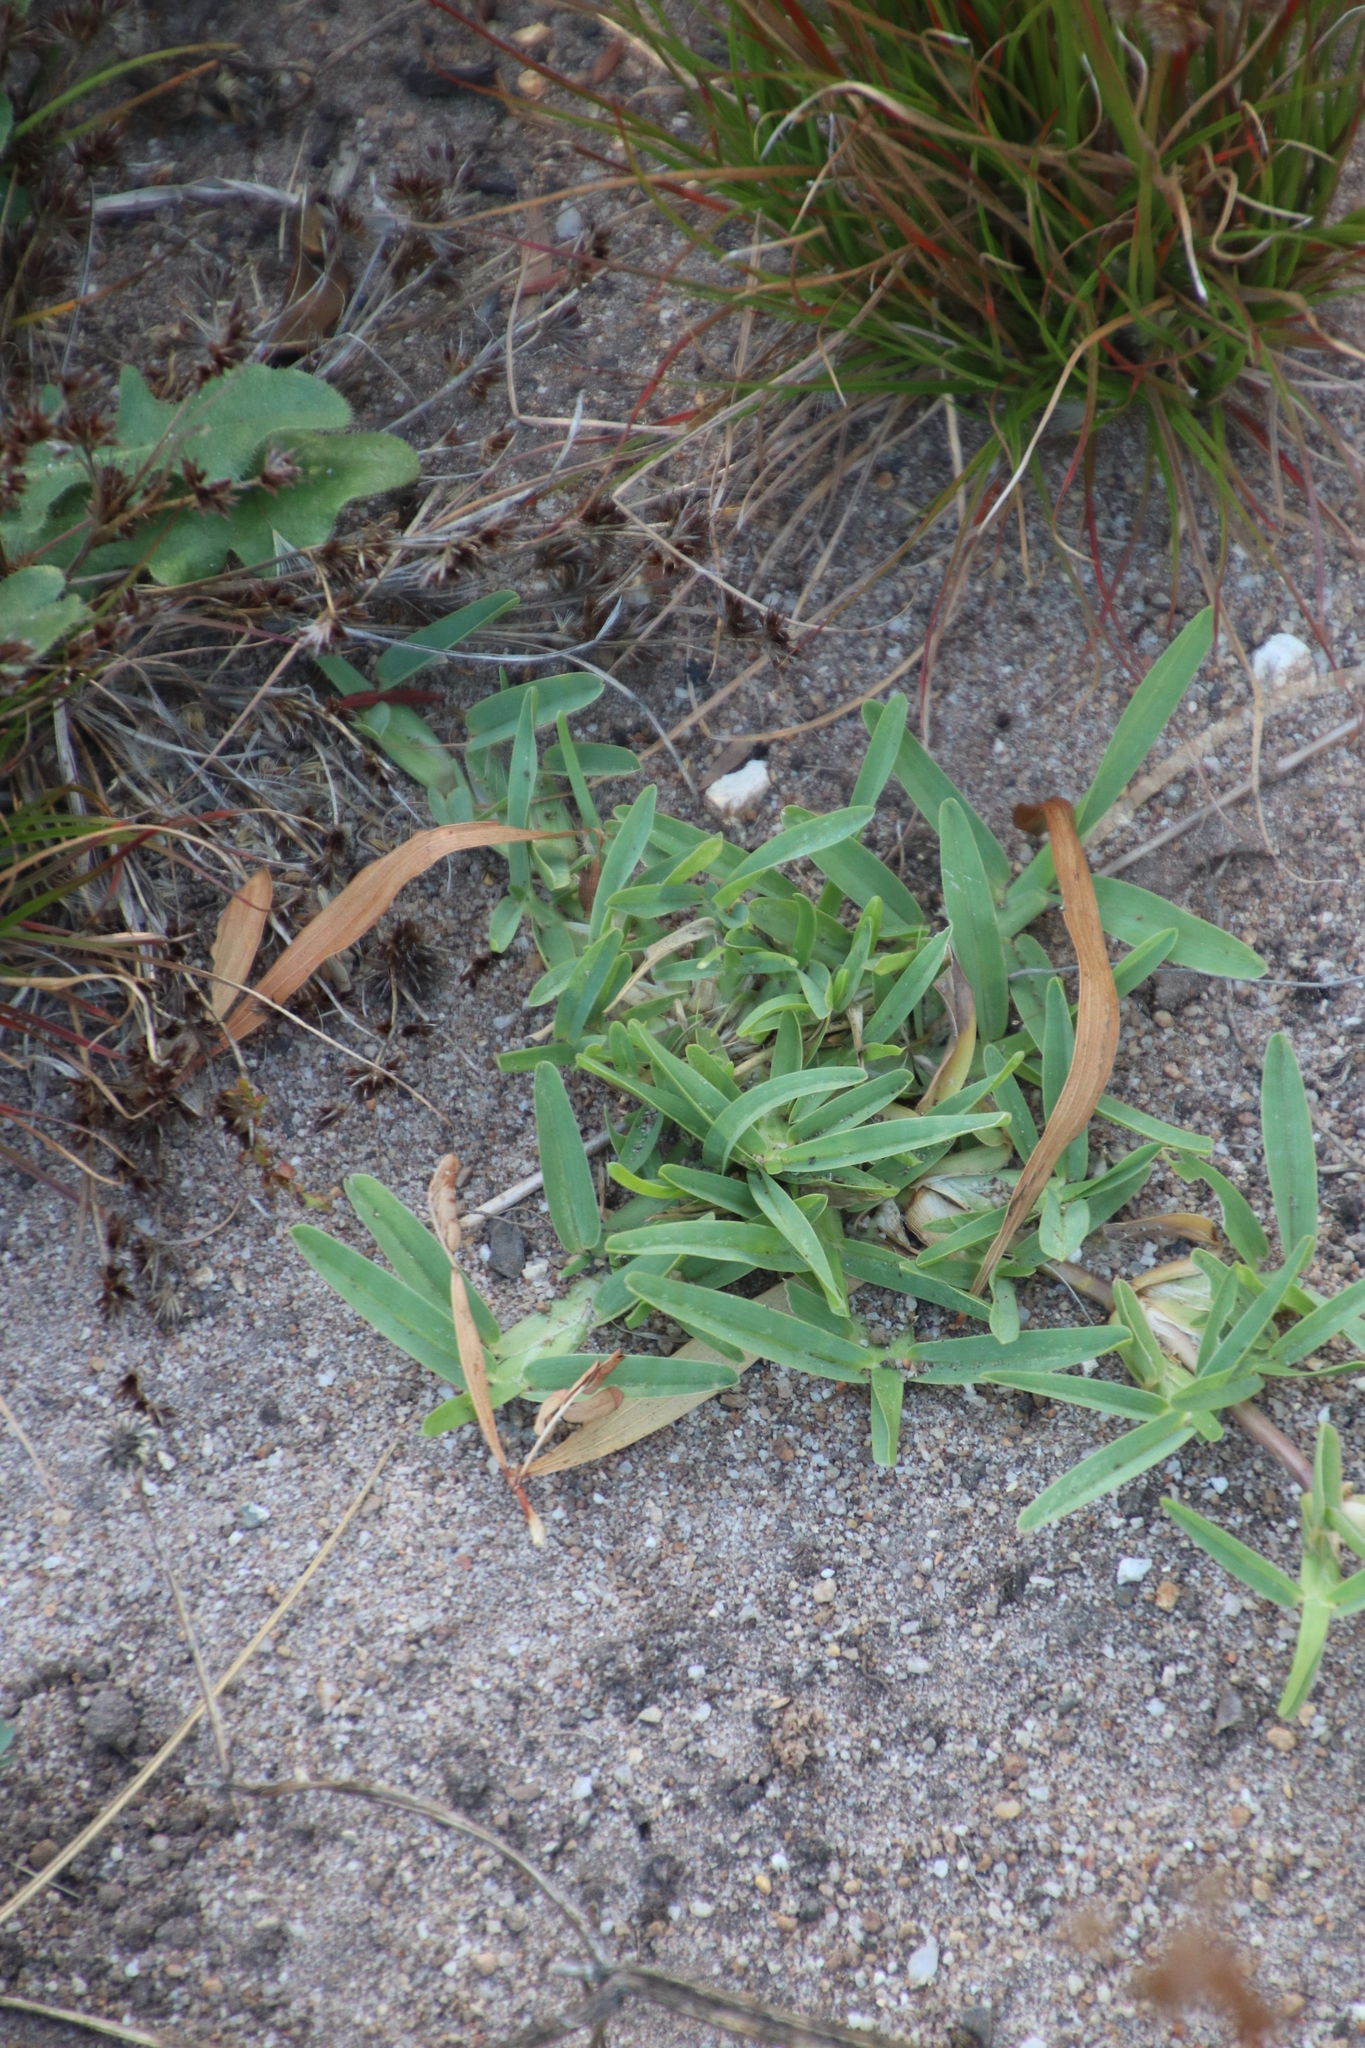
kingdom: Plantae
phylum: Tracheophyta
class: Liliopsida
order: Poales
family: Poaceae
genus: Stenotaphrum
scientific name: Stenotaphrum secundatum
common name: St. augustine grass
